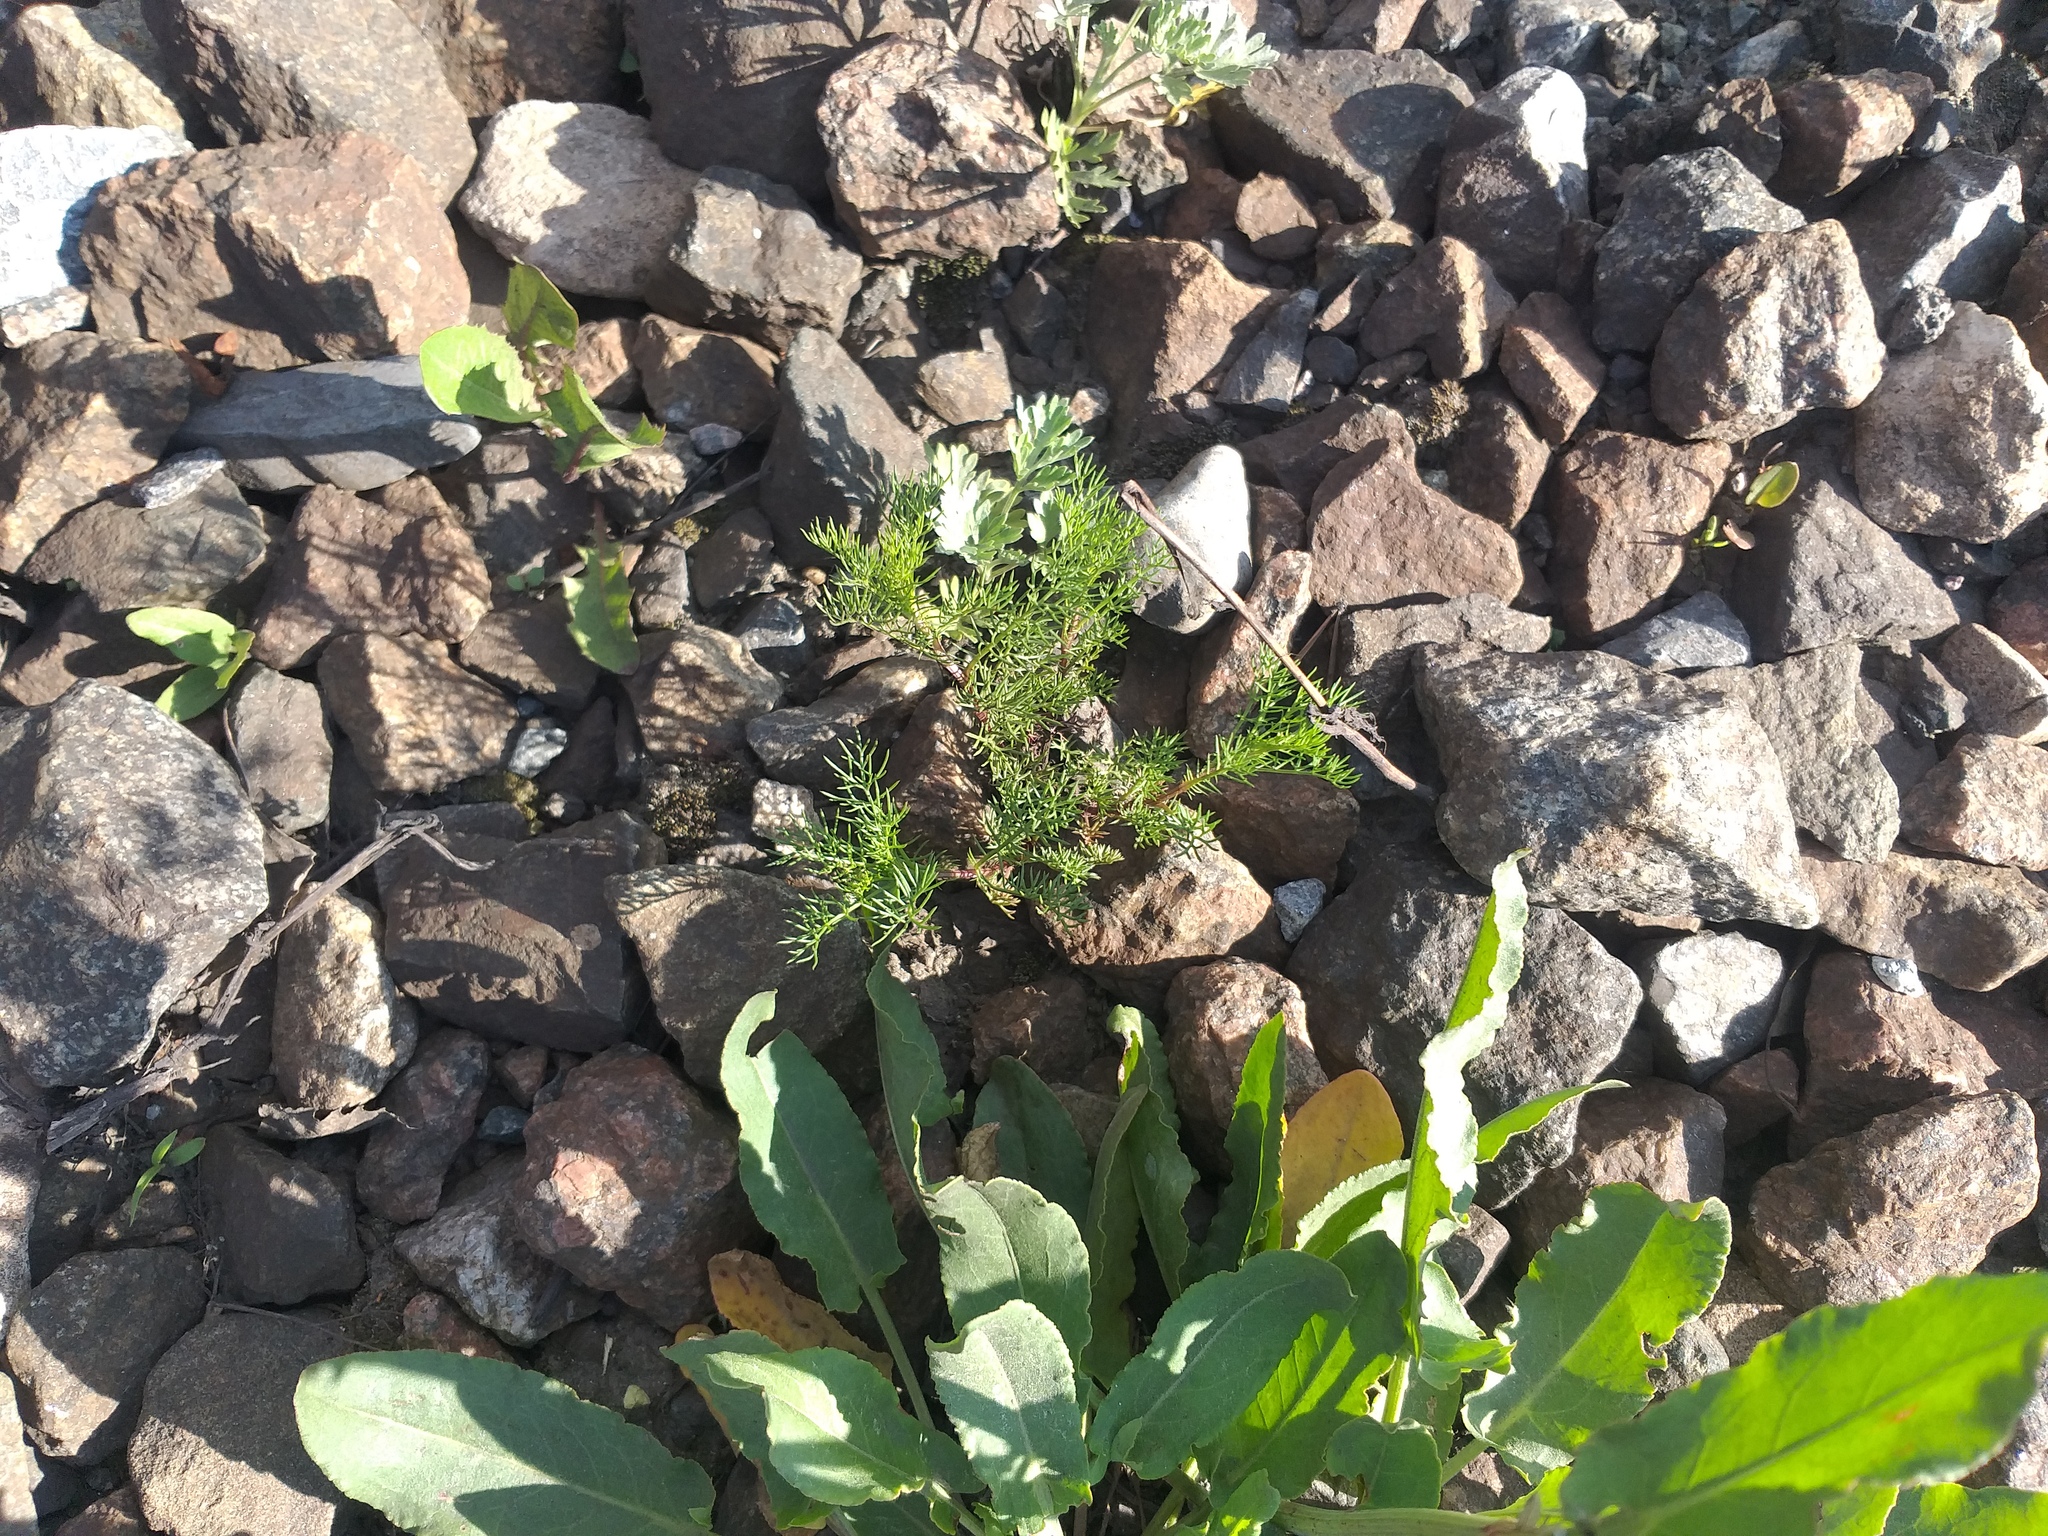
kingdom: Plantae
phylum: Tracheophyta
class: Magnoliopsida
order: Asterales
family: Asteraceae
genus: Tripleurospermum
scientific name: Tripleurospermum inodorum
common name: Scentless mayweed
